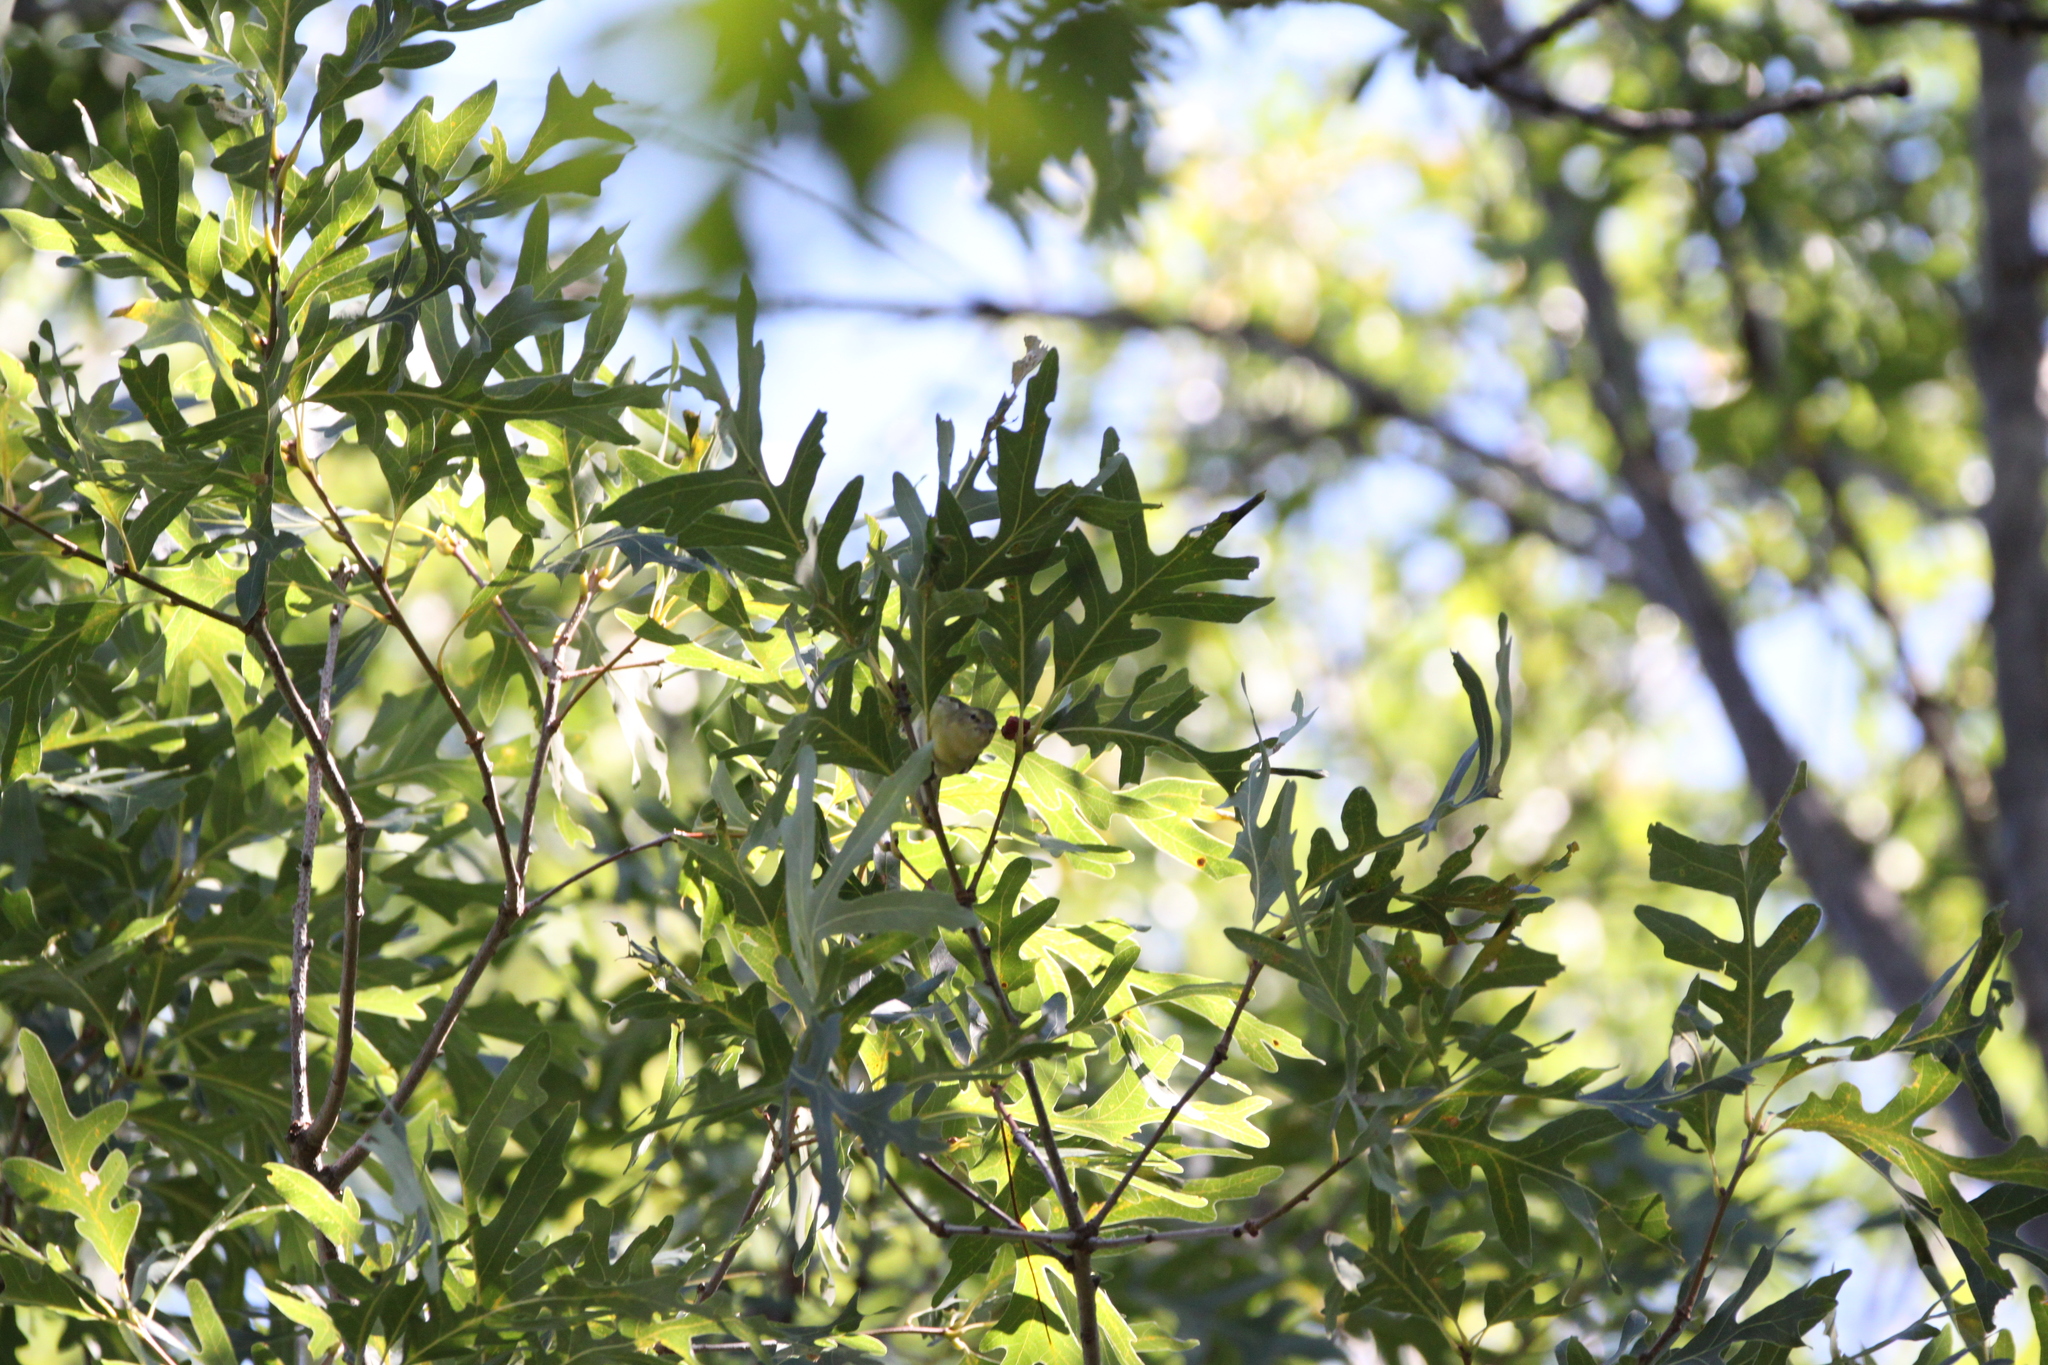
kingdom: Animalia
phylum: Chordata
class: Aves
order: Passeriformes
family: Parulidae
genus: Leiothlypis
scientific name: Leiothlypis peregrina
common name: Tennessee warbler
